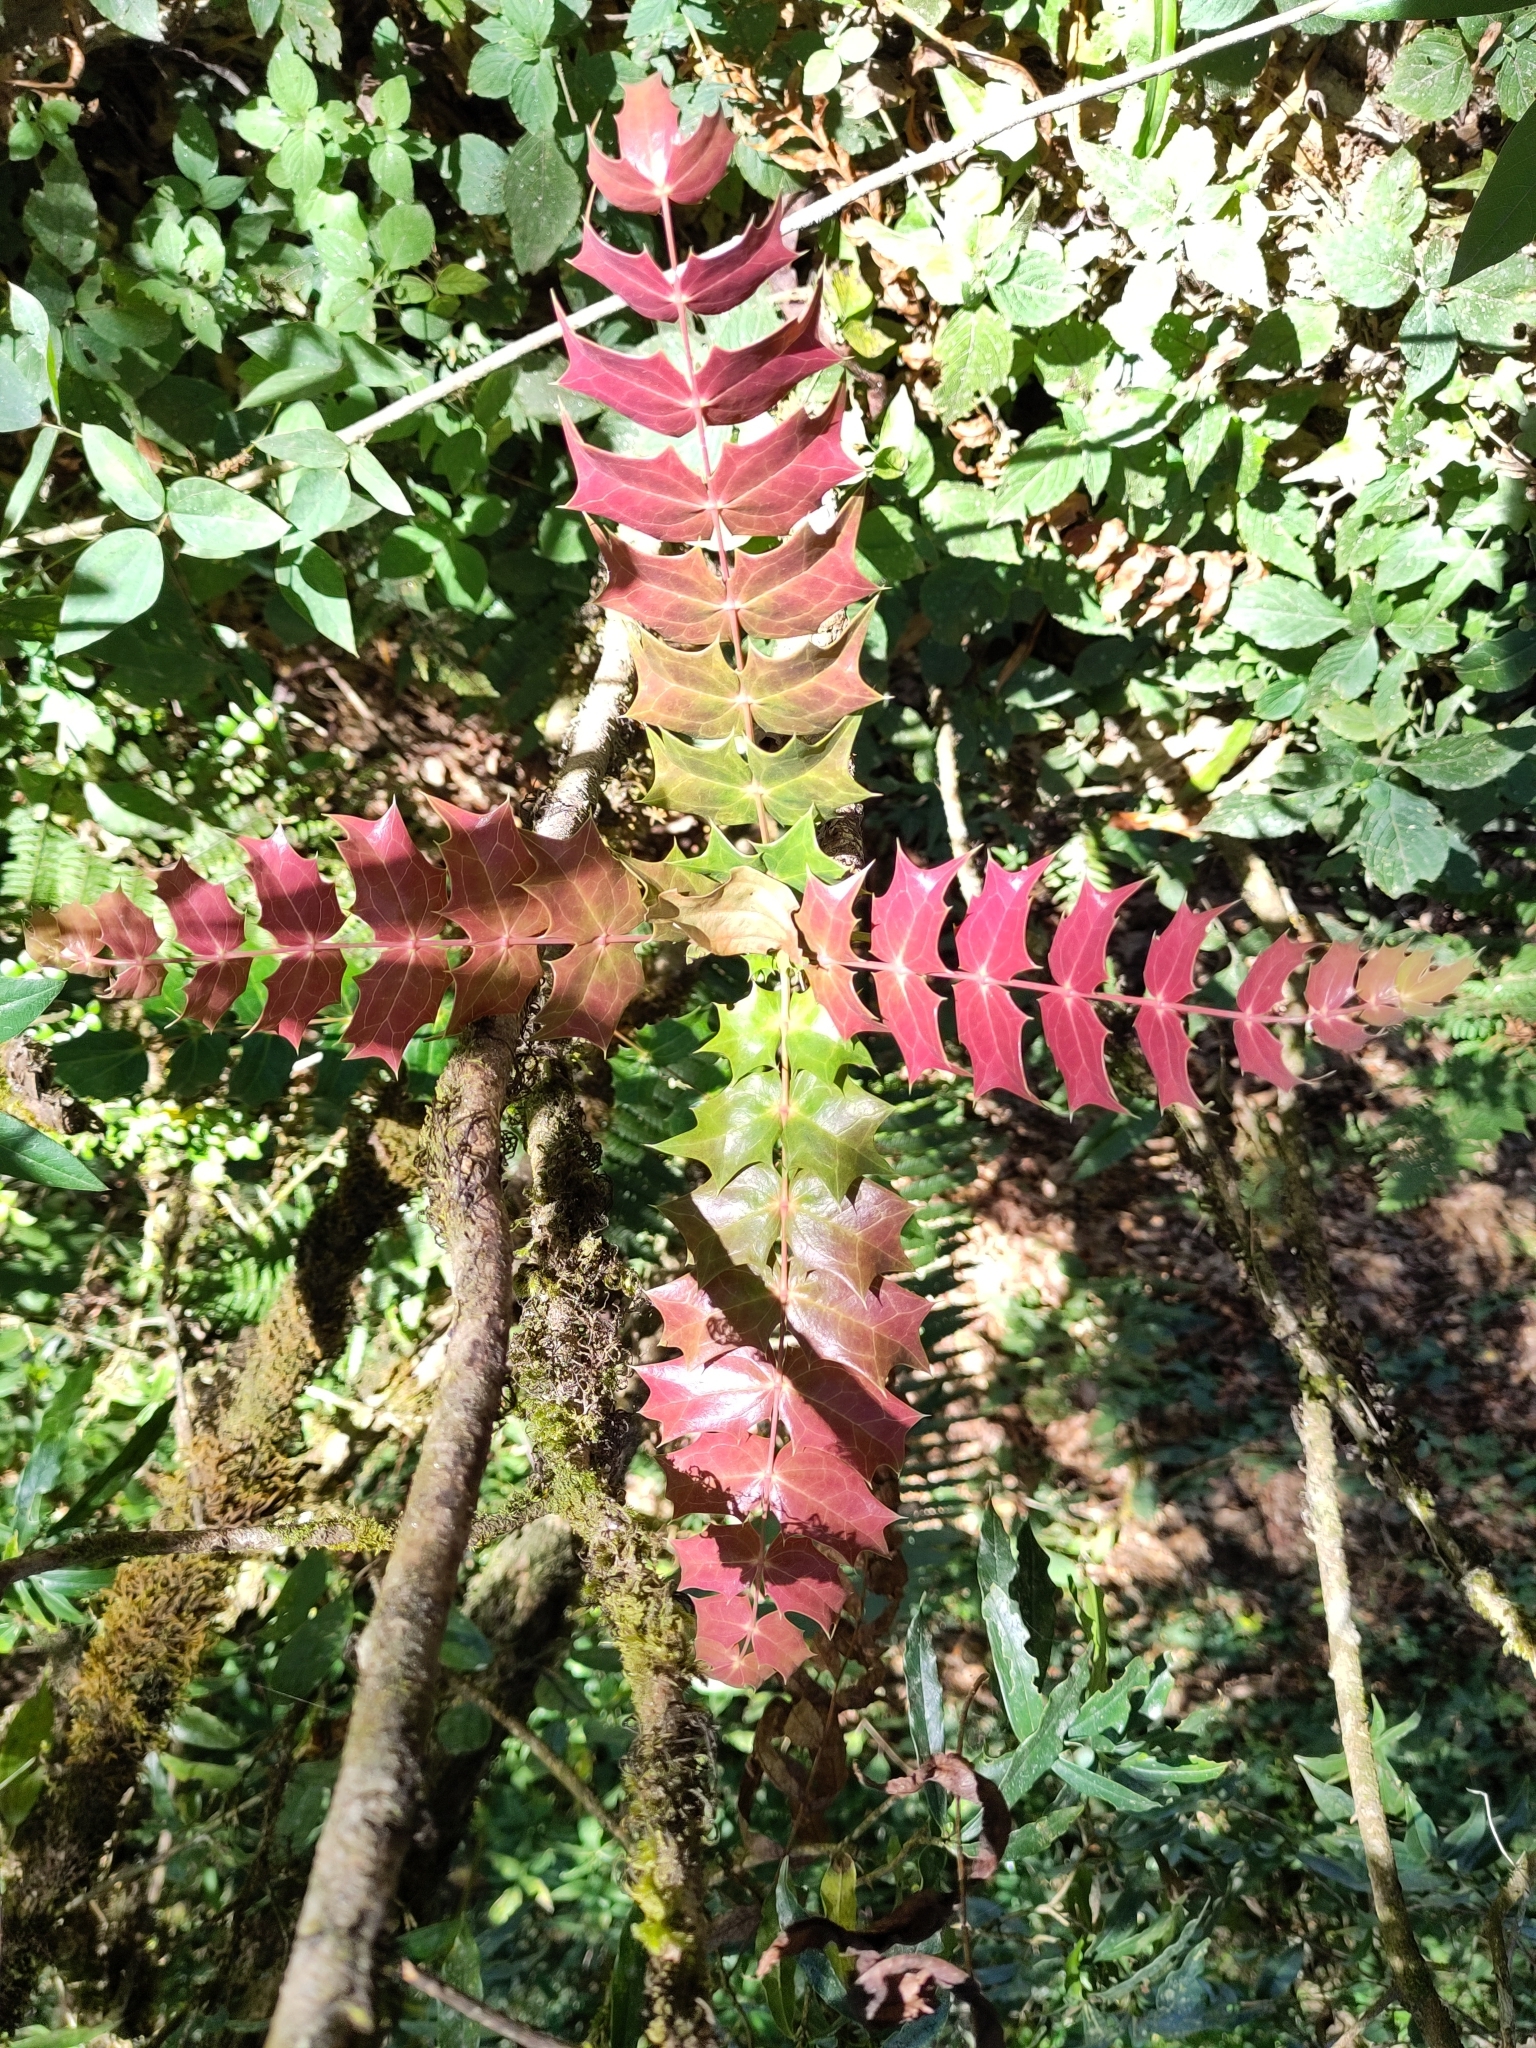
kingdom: Plantae
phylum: Tracheophyta
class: Magnoliopsida
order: Ranunculales
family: Berberidaceae
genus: Mahonia
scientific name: Mahonia napaulensis
